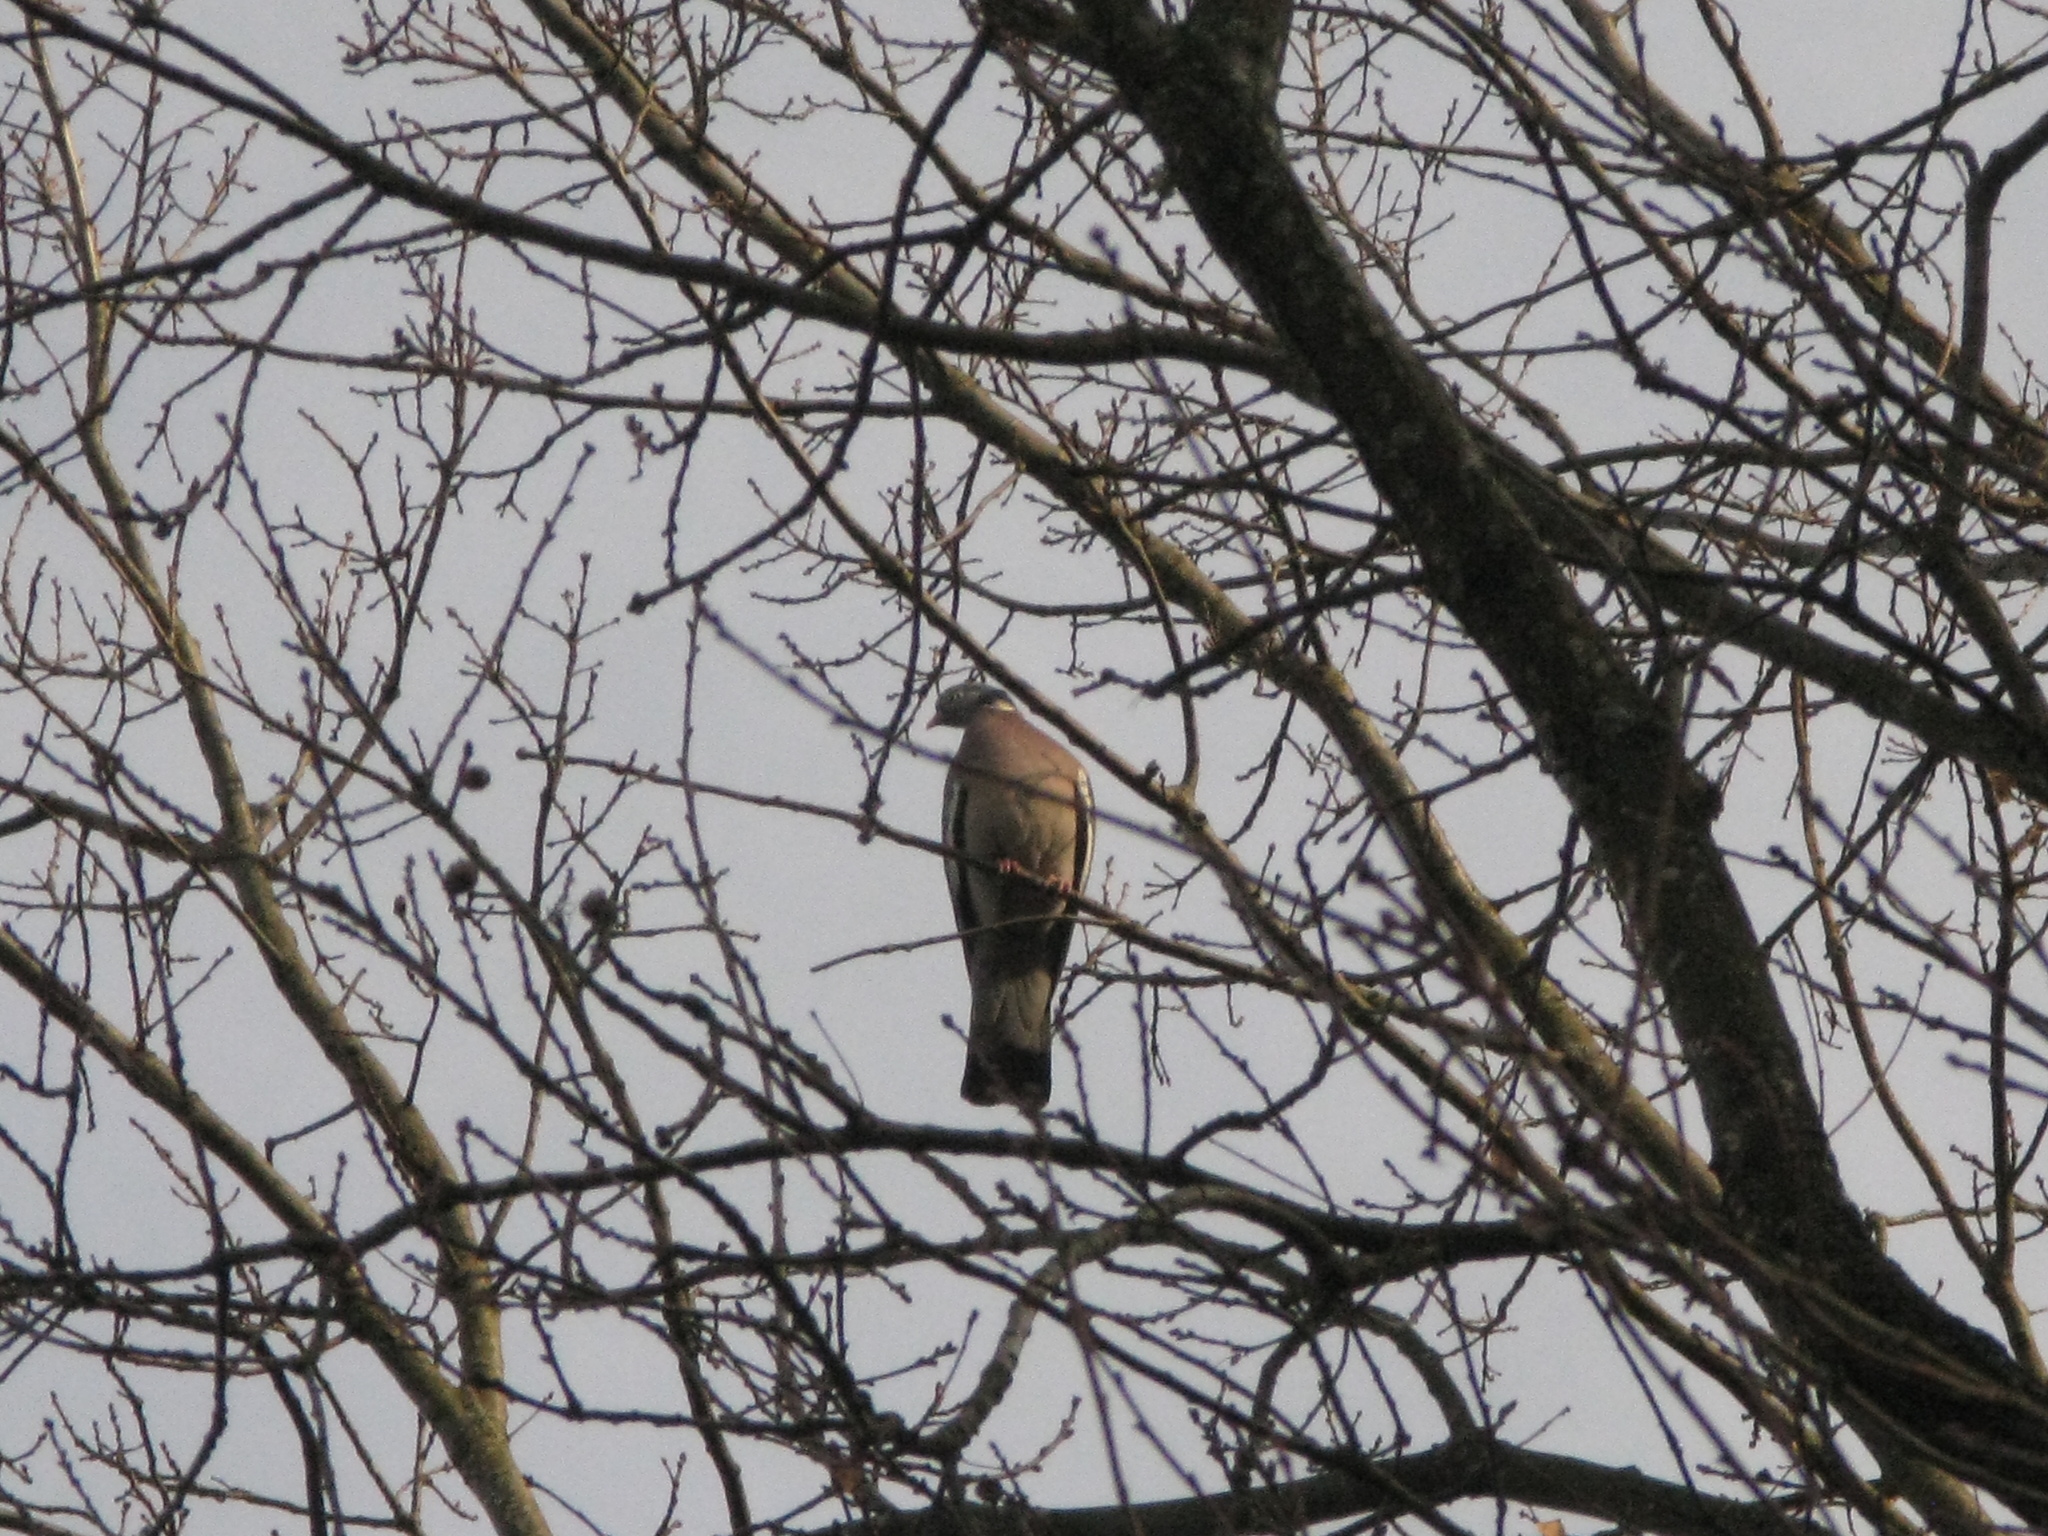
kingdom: Animalia
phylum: Chordata
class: Aves
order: Columbiformes
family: Columbidae
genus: Columba
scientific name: Columba palumbus
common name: Common wood pigeon
